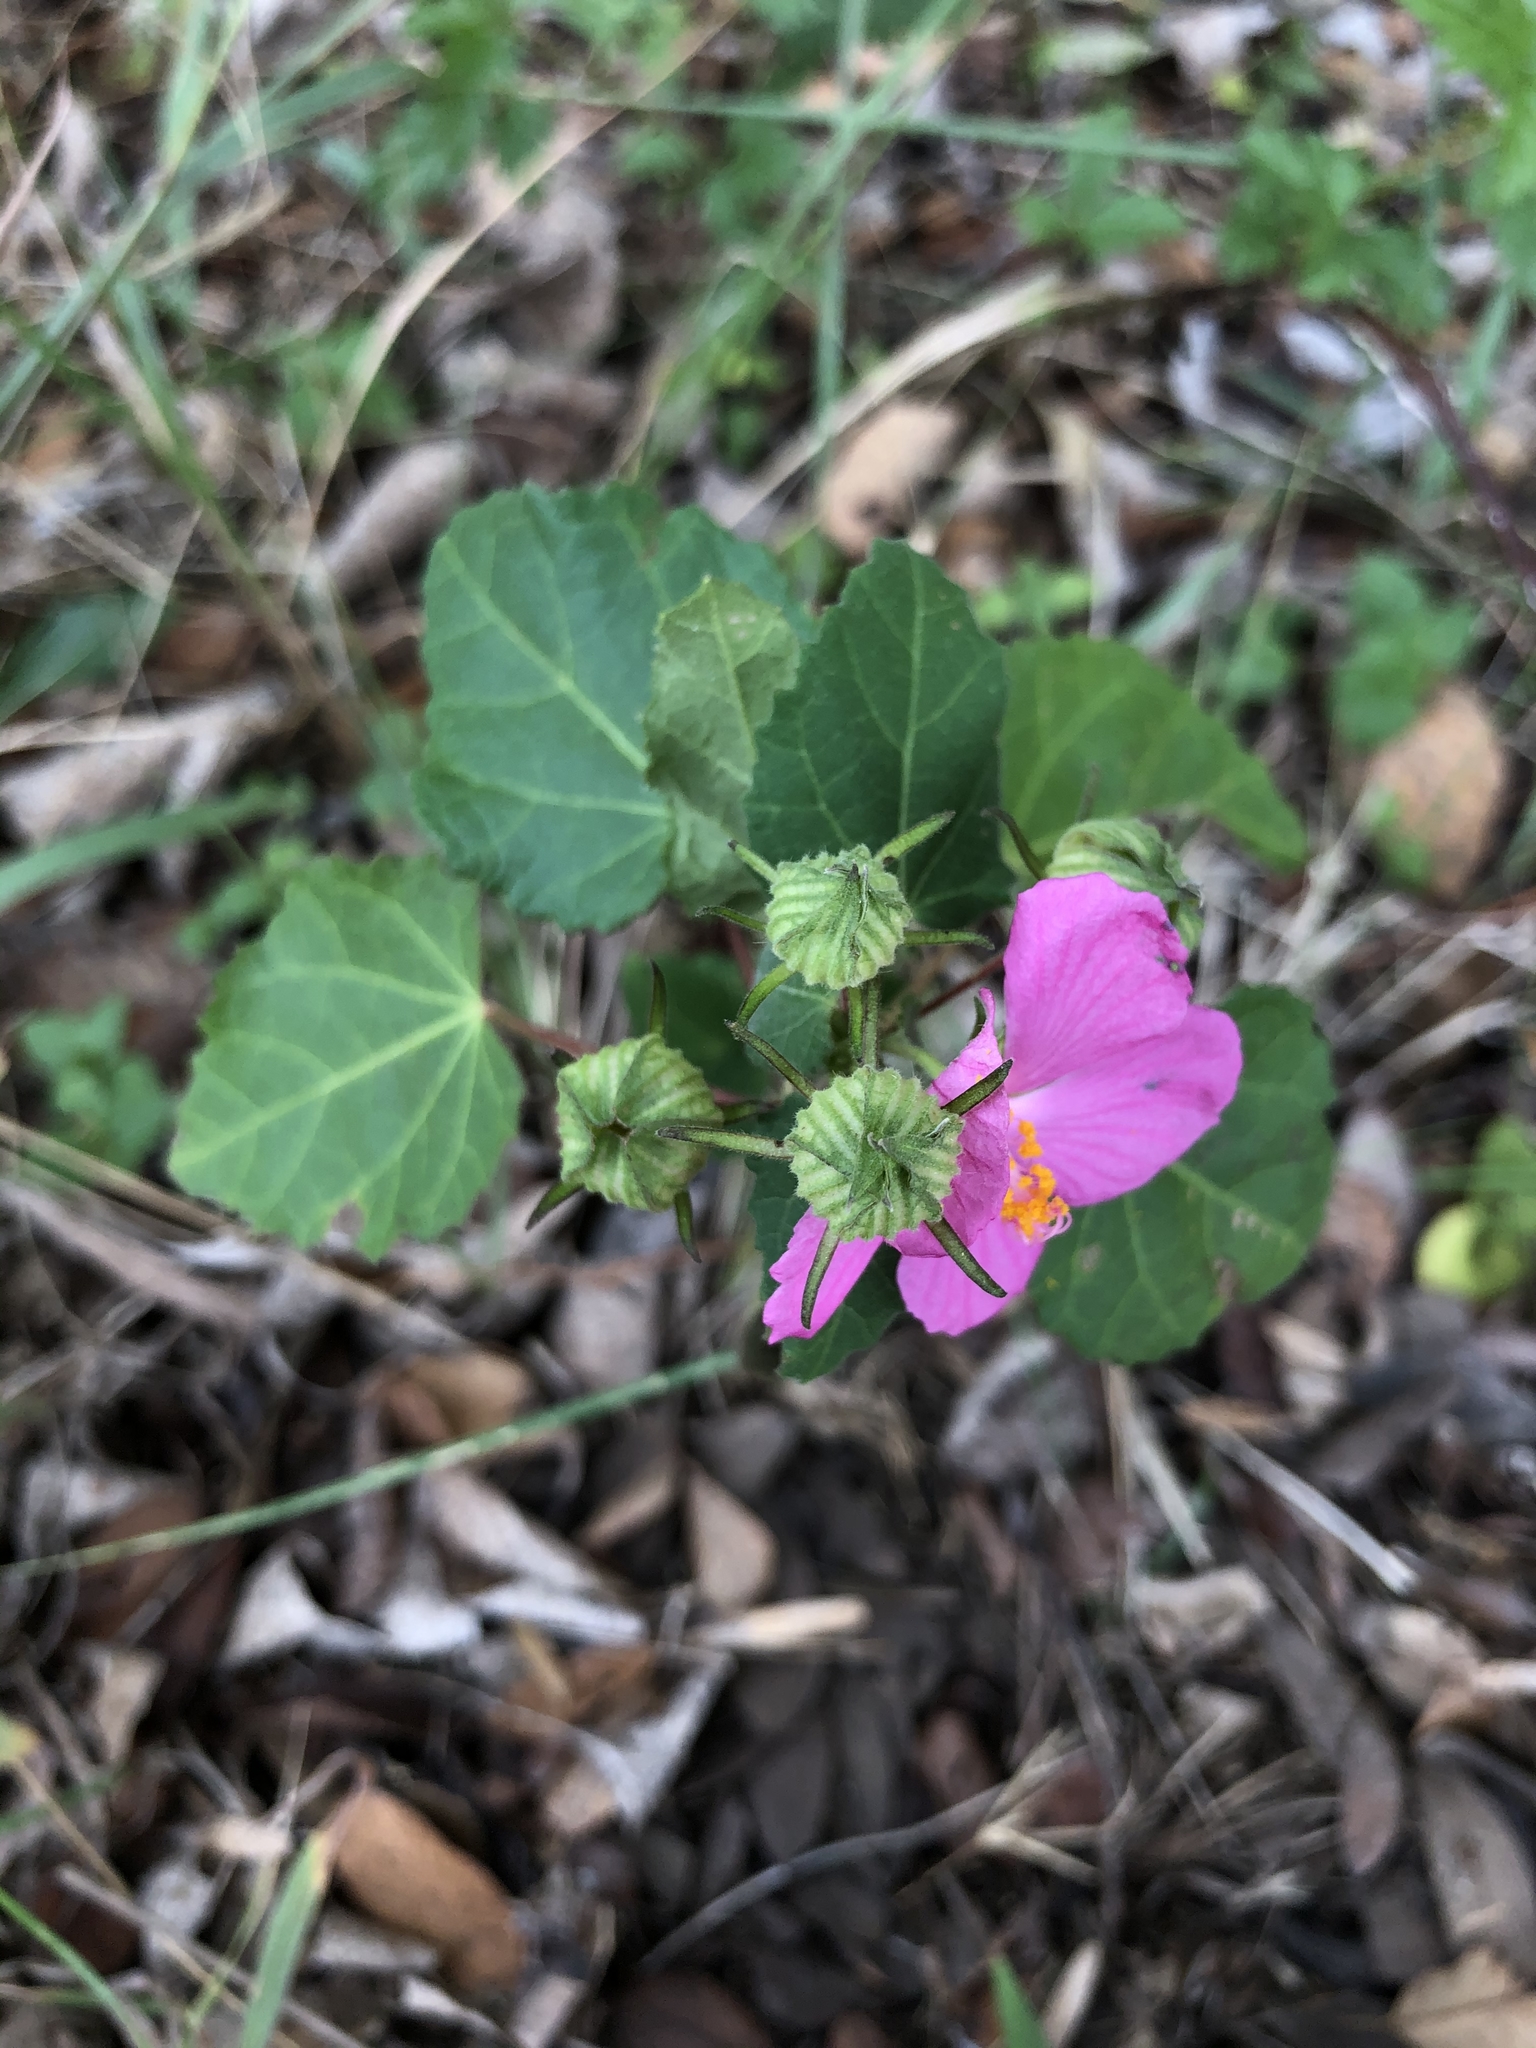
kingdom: Plantae
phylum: Tracheophyta
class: Magnoliopsida
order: Malvales
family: Malvaceae
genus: Pavonia
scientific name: Pavonia lasiopetala
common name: Texas swamp-mallow
